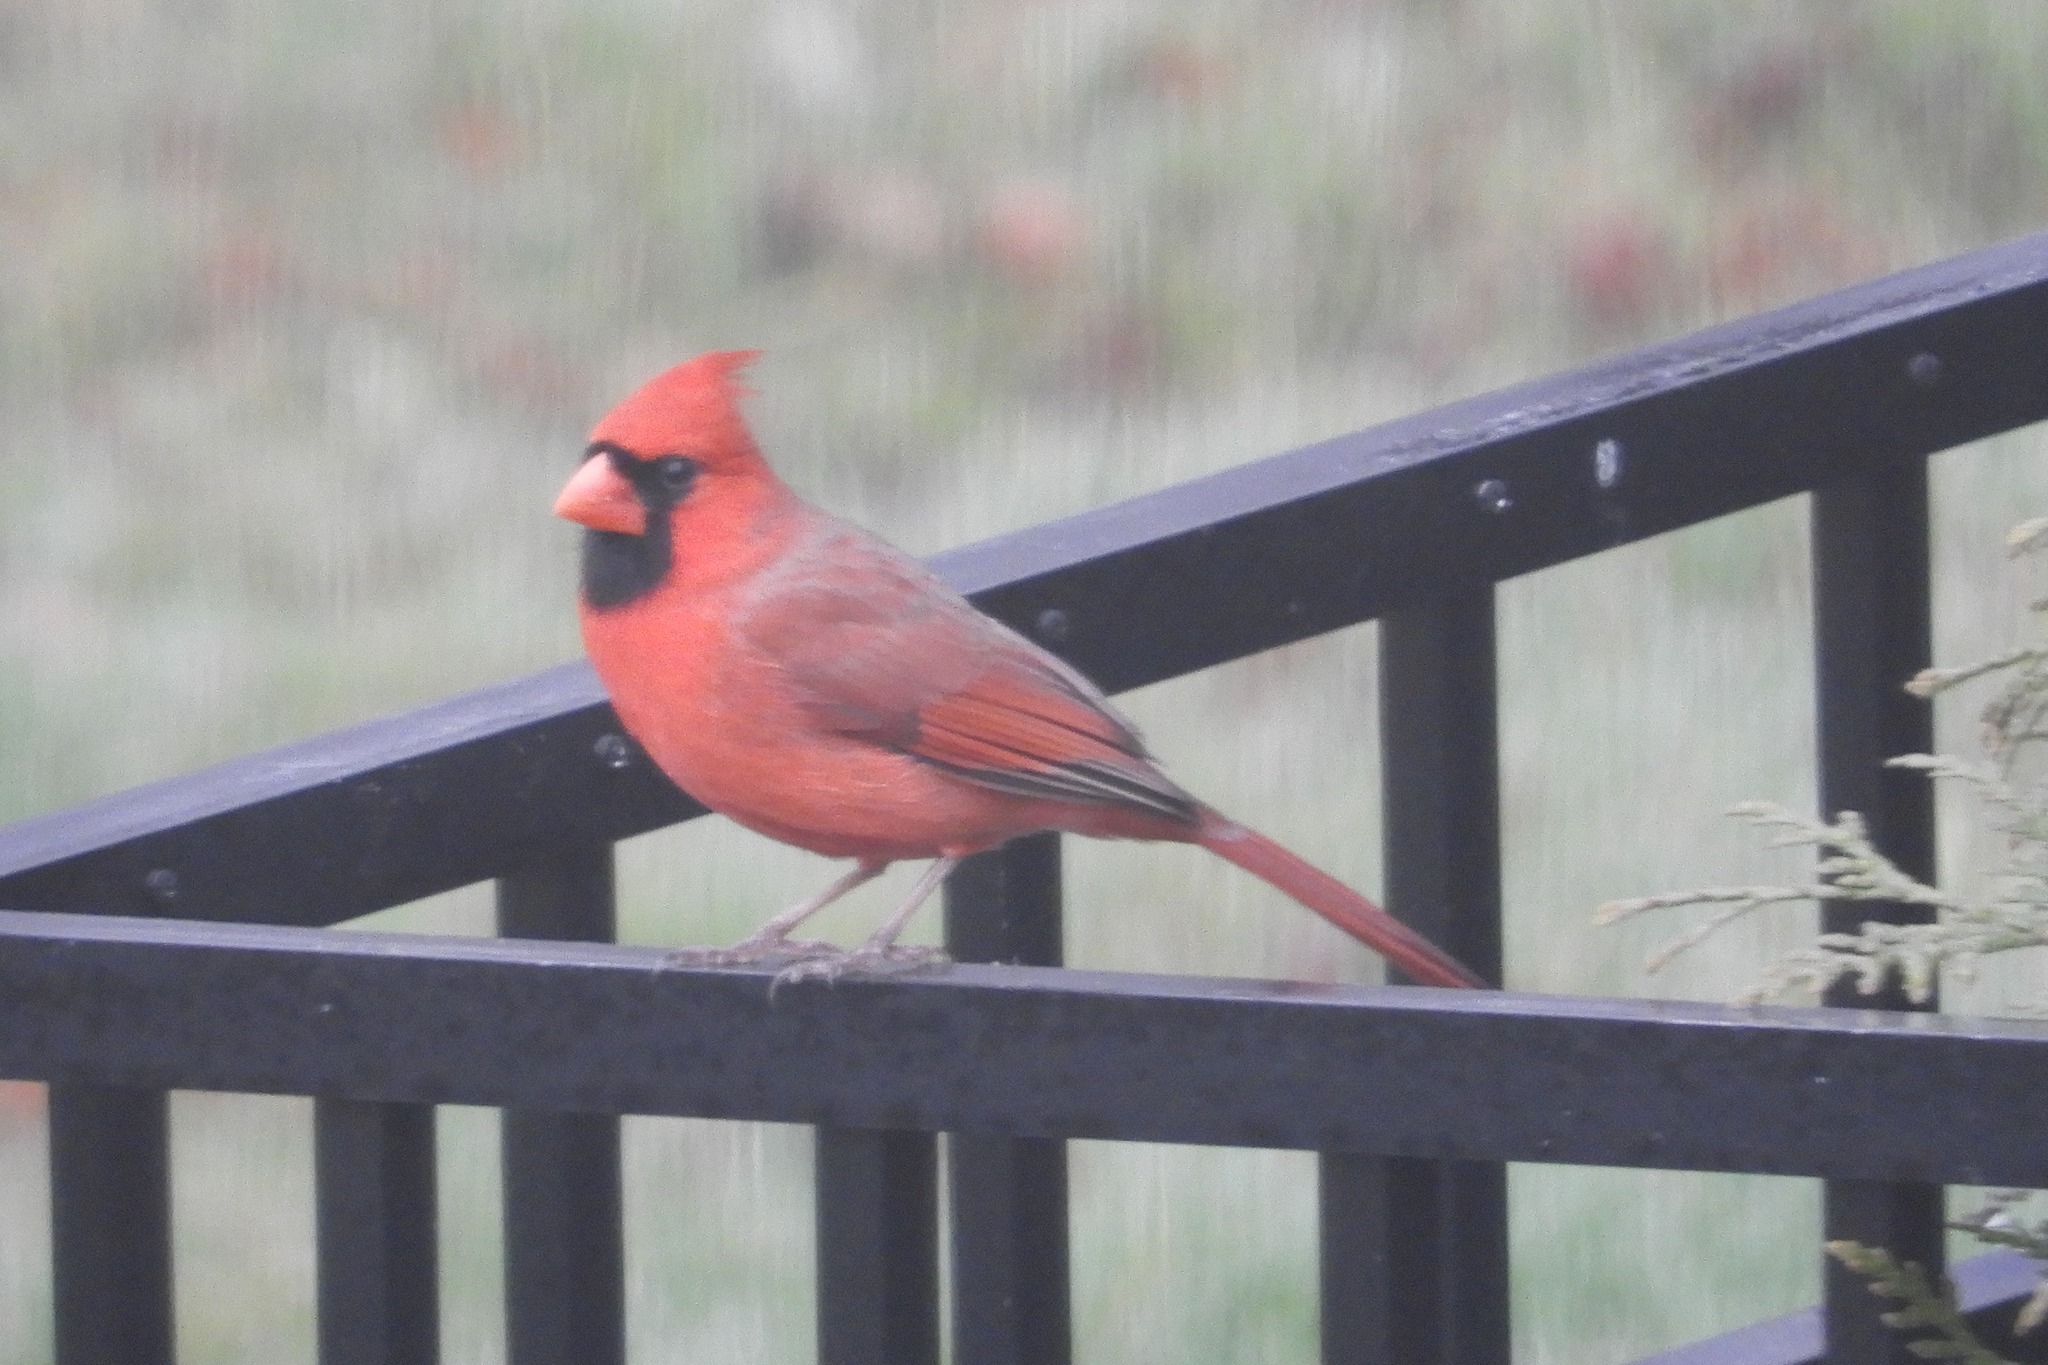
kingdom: Animalia
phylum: Chordata
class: Aves
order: Passeriformes
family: Cardinalidae
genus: Cardinalis
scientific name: Cardinalis cardinalis
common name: Northern cardinal
